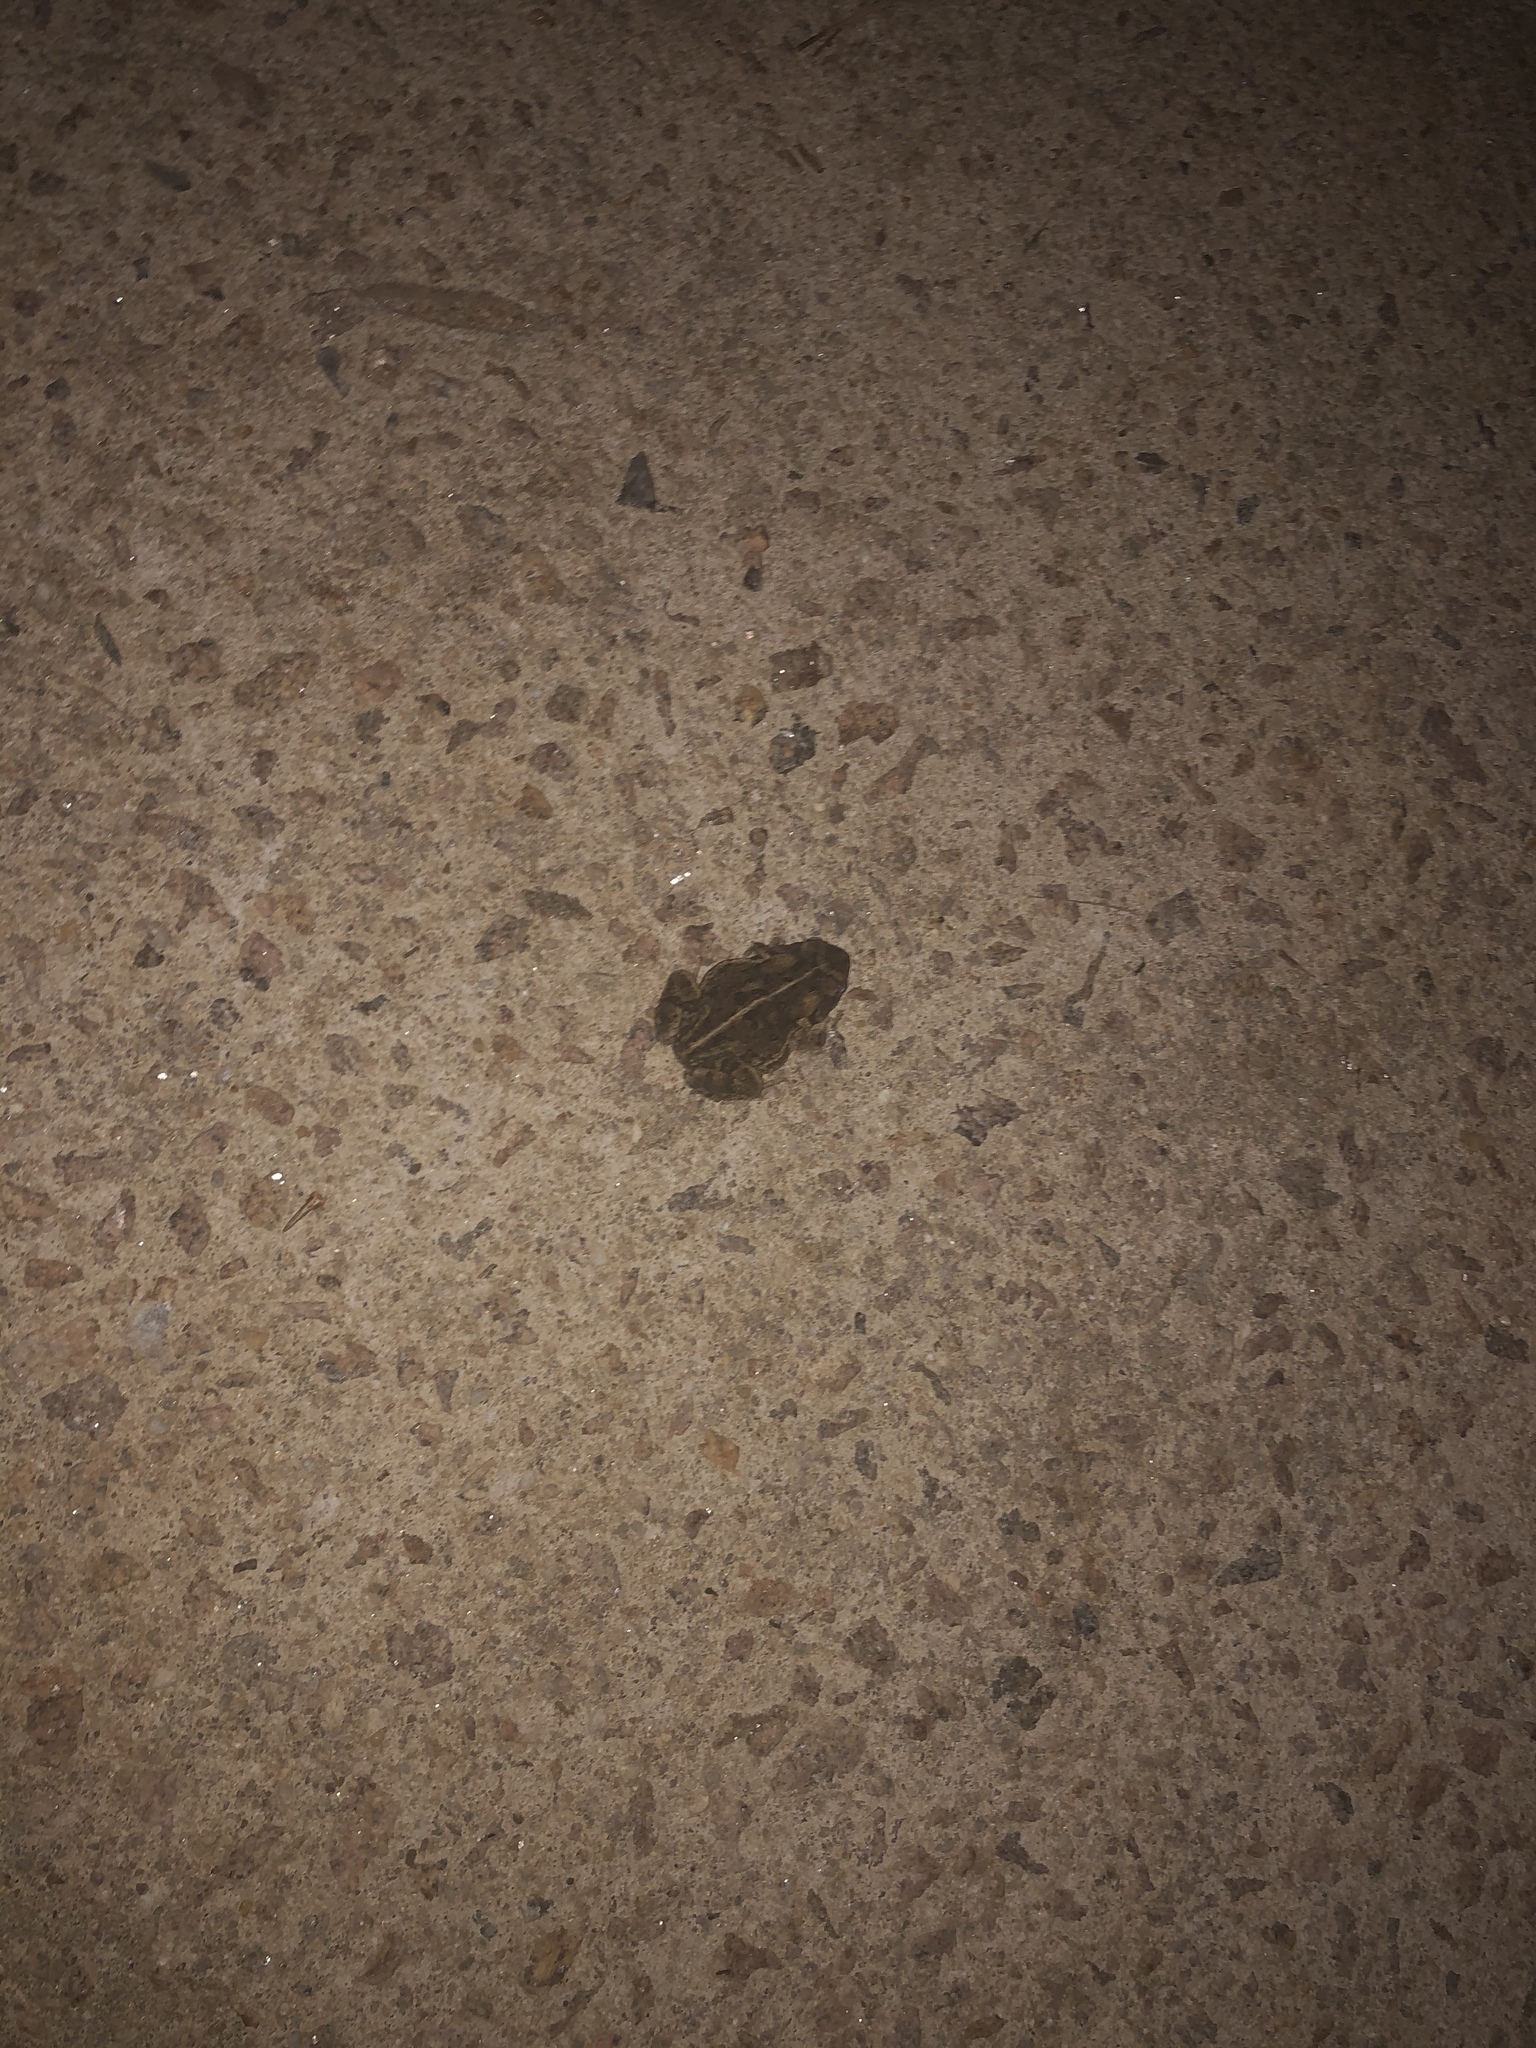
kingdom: Animalia
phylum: Chordata
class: Amphibia
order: Anura
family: Bufonidae
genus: Anaxyrus
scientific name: Anaxyrus fowleri
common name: Fowler's toad
